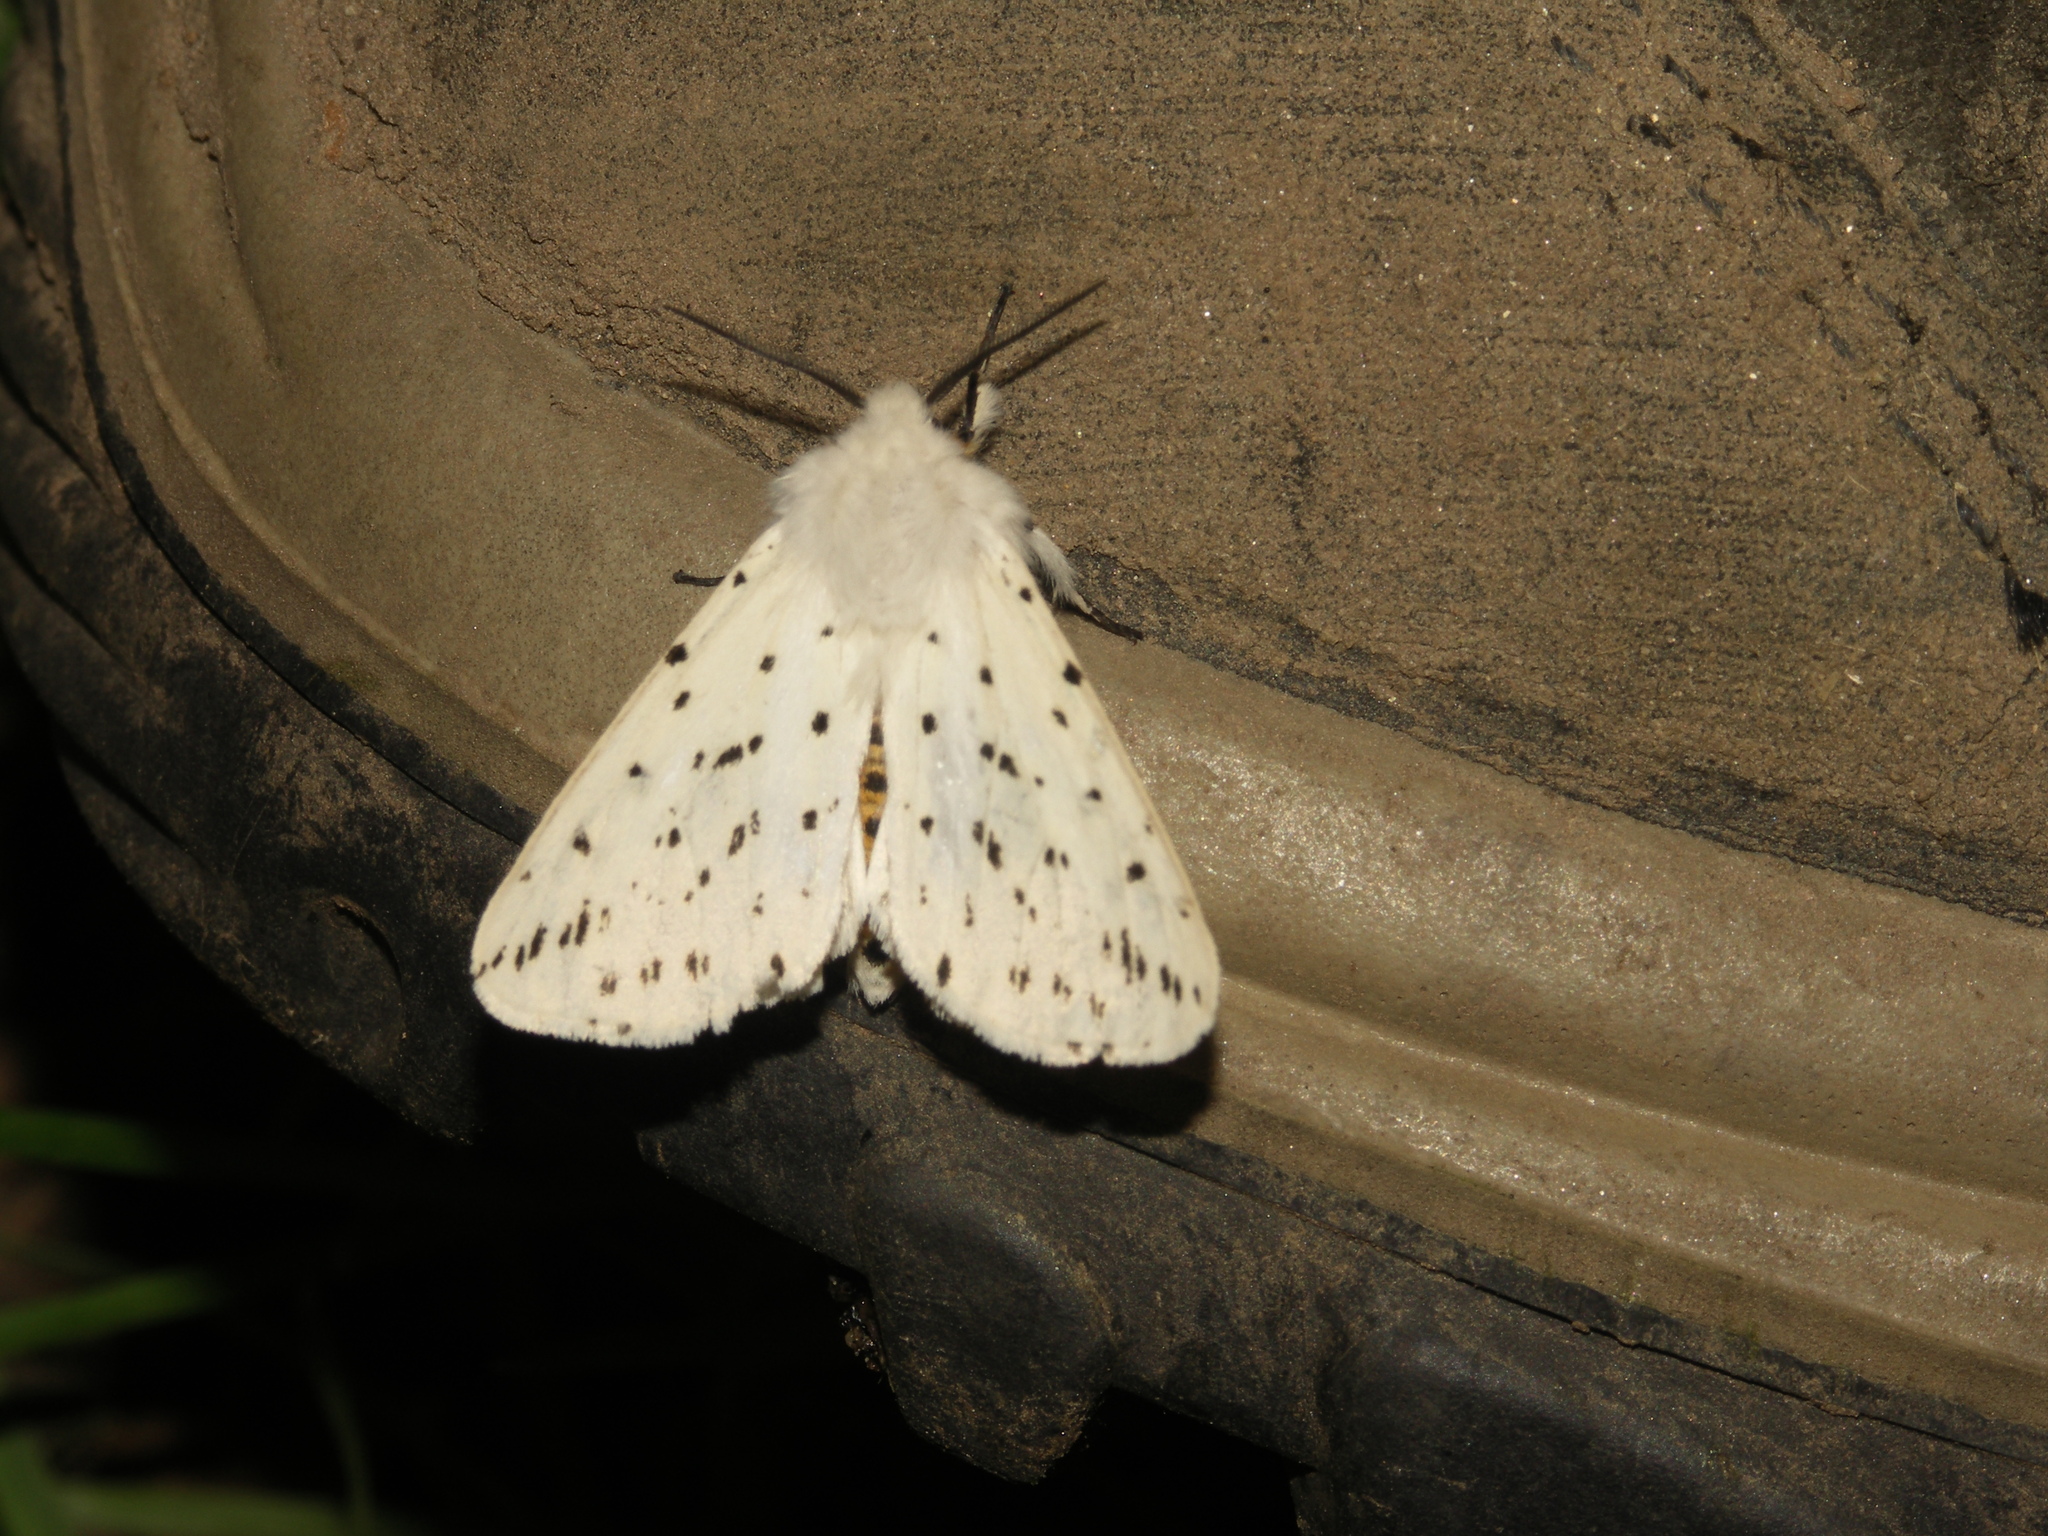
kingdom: Animalia
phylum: Arthropoda
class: Insecta
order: Lepidoptera
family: Erebidae
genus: Spilosoma
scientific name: Spilosoma lubricipeda
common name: White ermine
